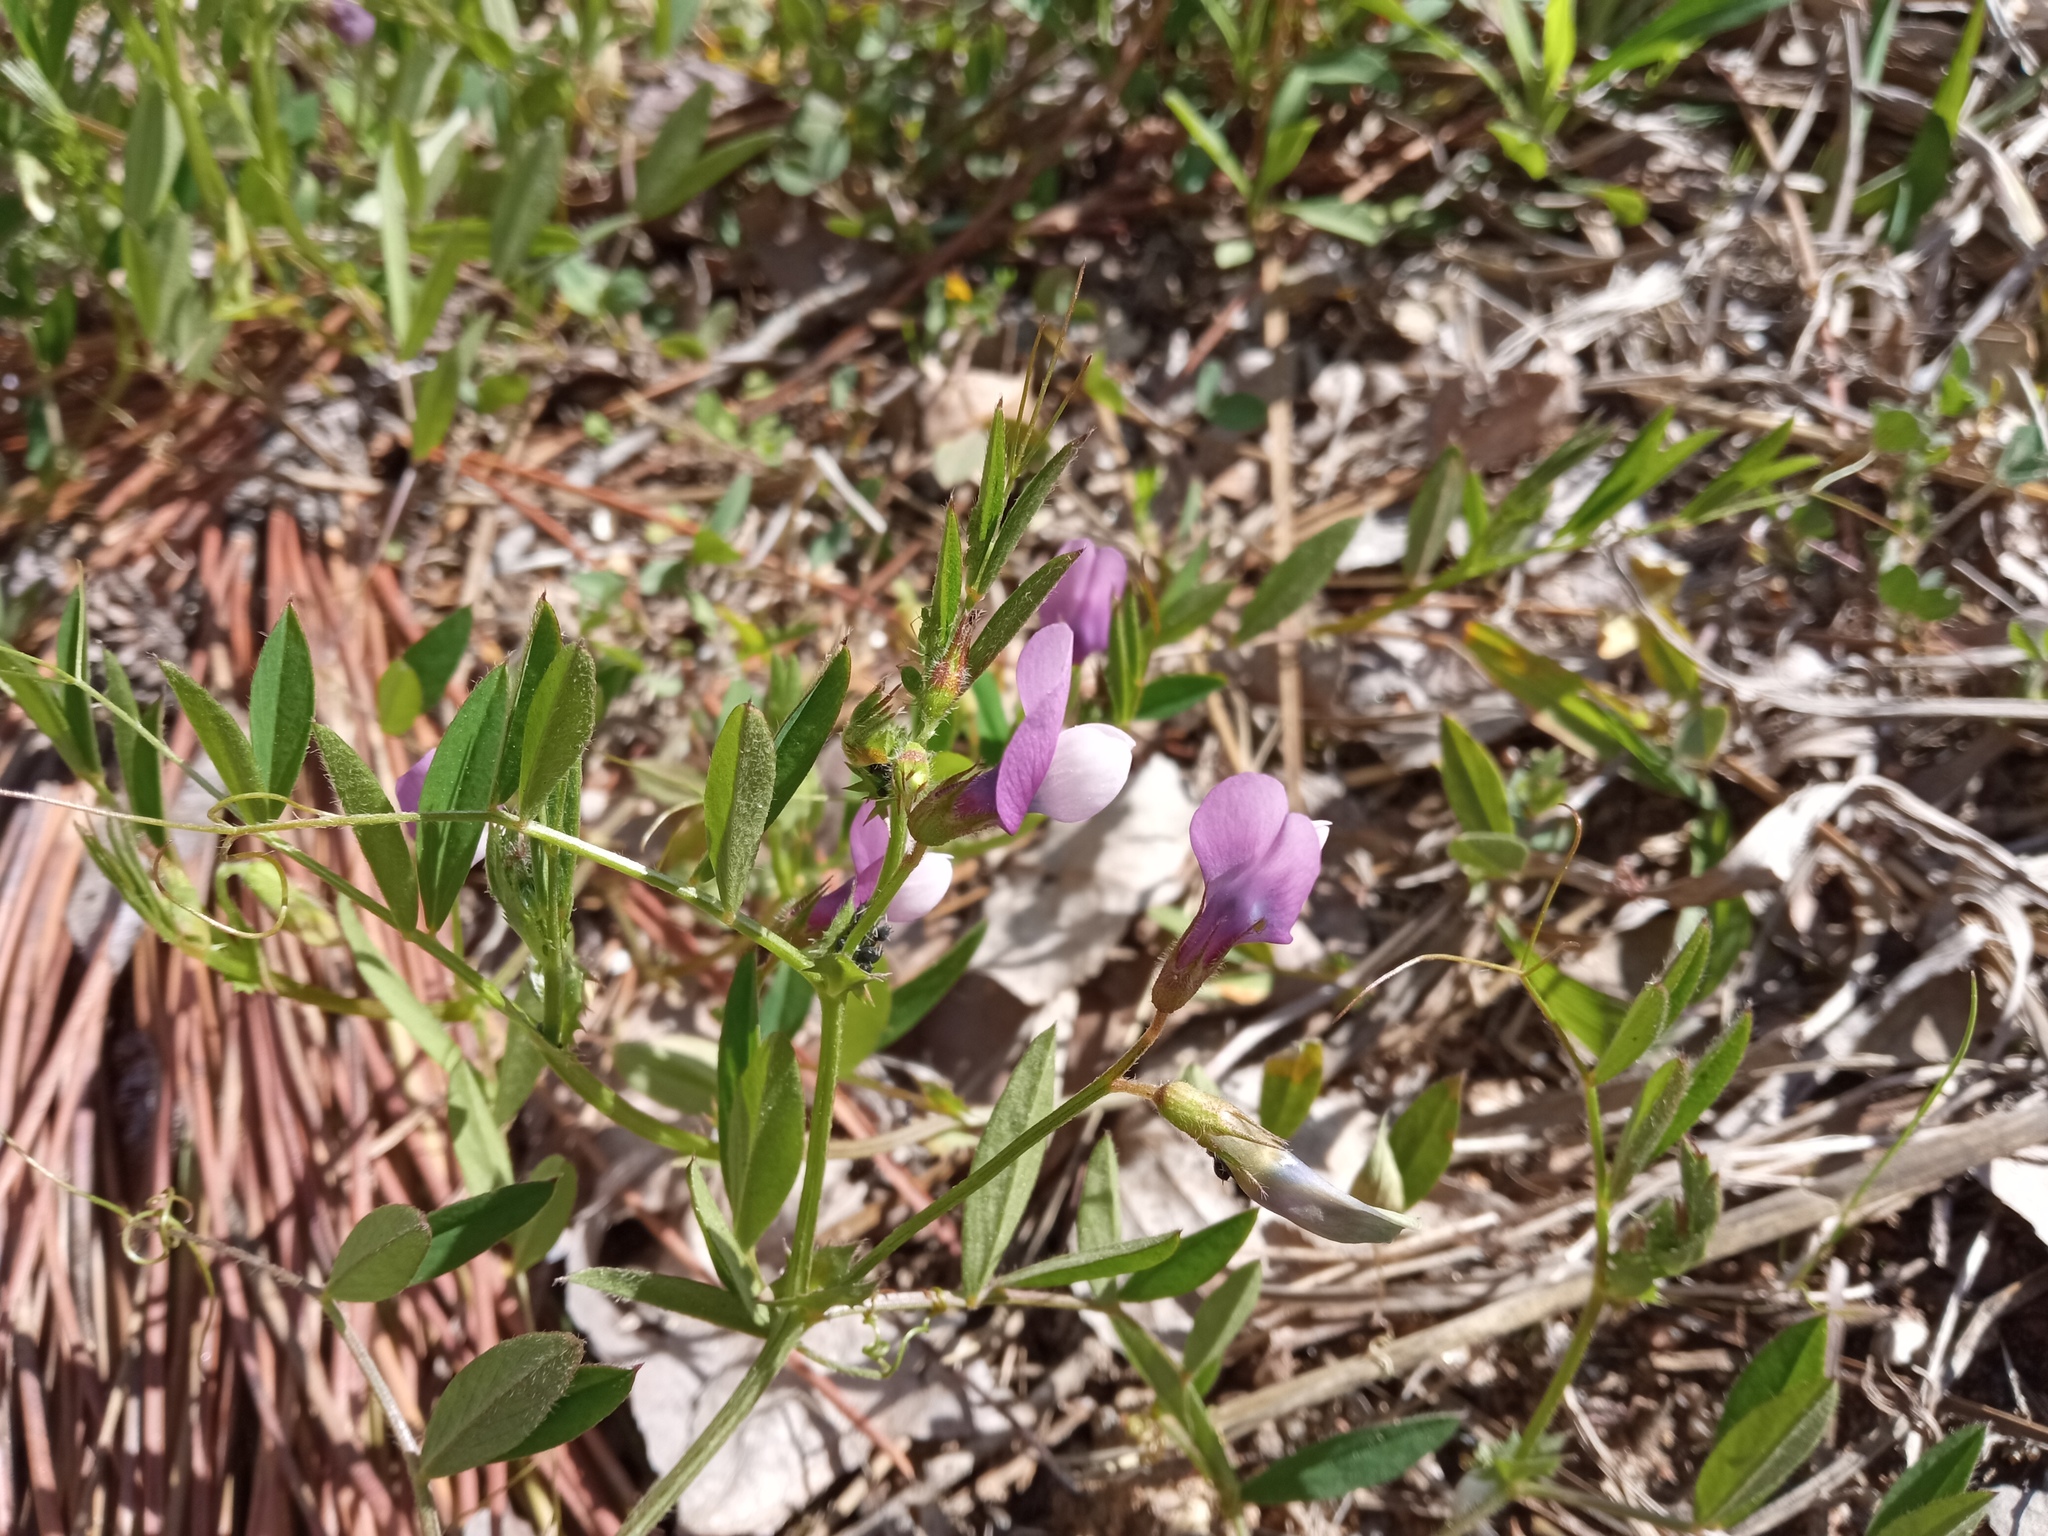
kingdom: Plantae
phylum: Tracheophyta
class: Magnoliopsida
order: Fabales
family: Fabaceae
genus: Vicia
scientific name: Vicia bithynica
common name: Bithynian vetch
